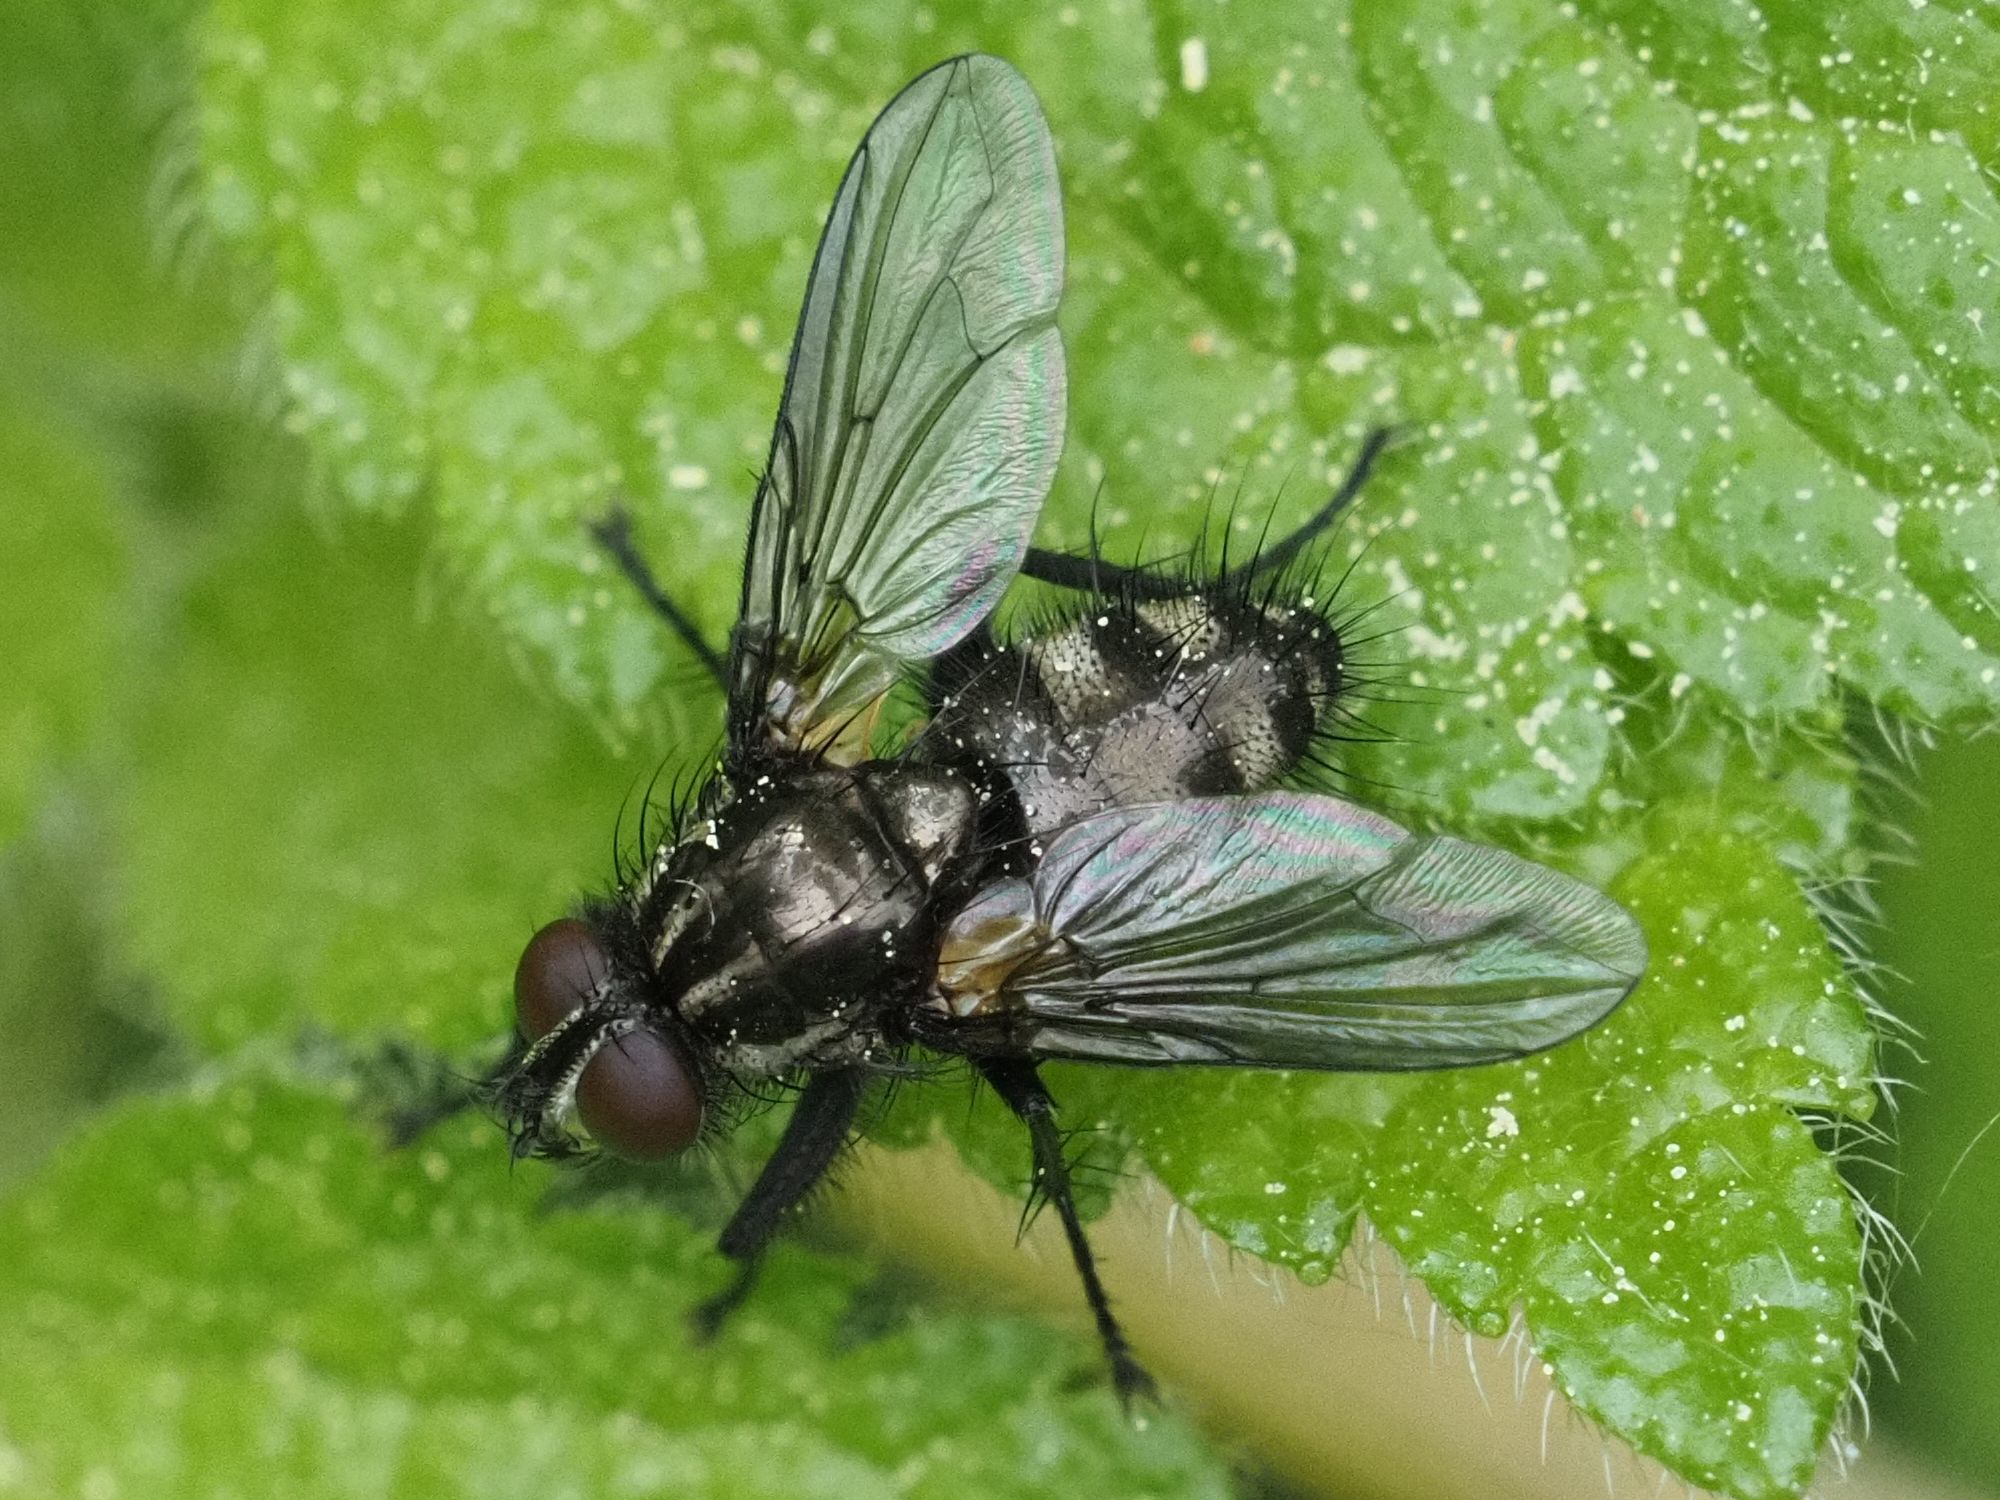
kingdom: Animalia
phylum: Arthropoda
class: Insecta
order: Diptera
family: Calliphoridae
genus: Rhinomorinia
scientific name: Rhinomorinia sarcophagina
